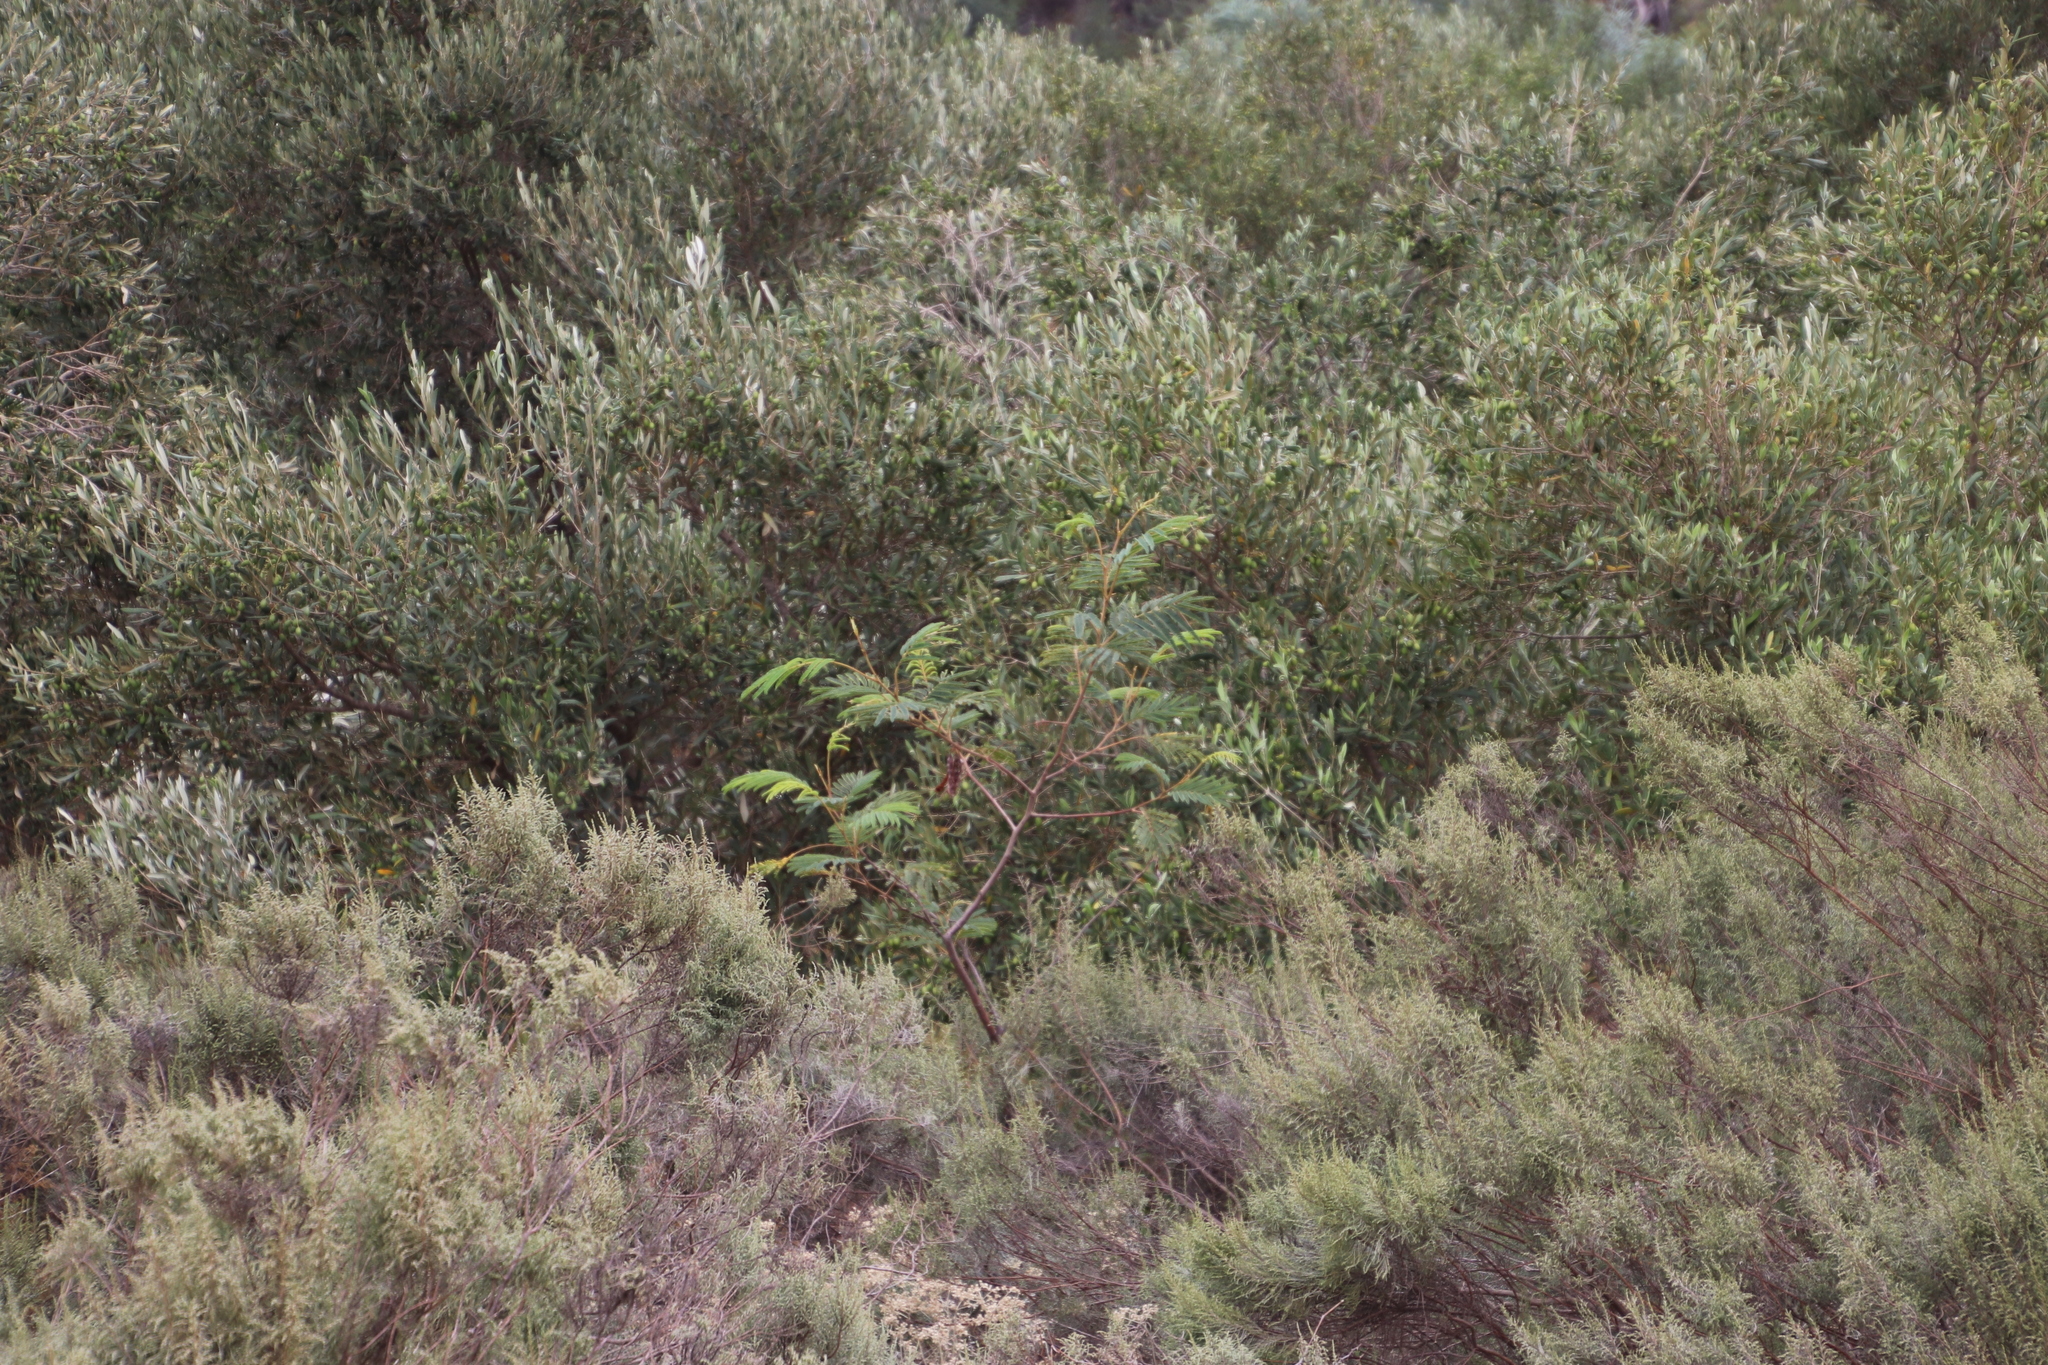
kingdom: Plantae
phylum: Tracheophyta
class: Magnoliopsida
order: Fabales
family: Fabaceae
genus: Paraserianthes
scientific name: Paraserianthes lophantha
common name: Plume albizia
